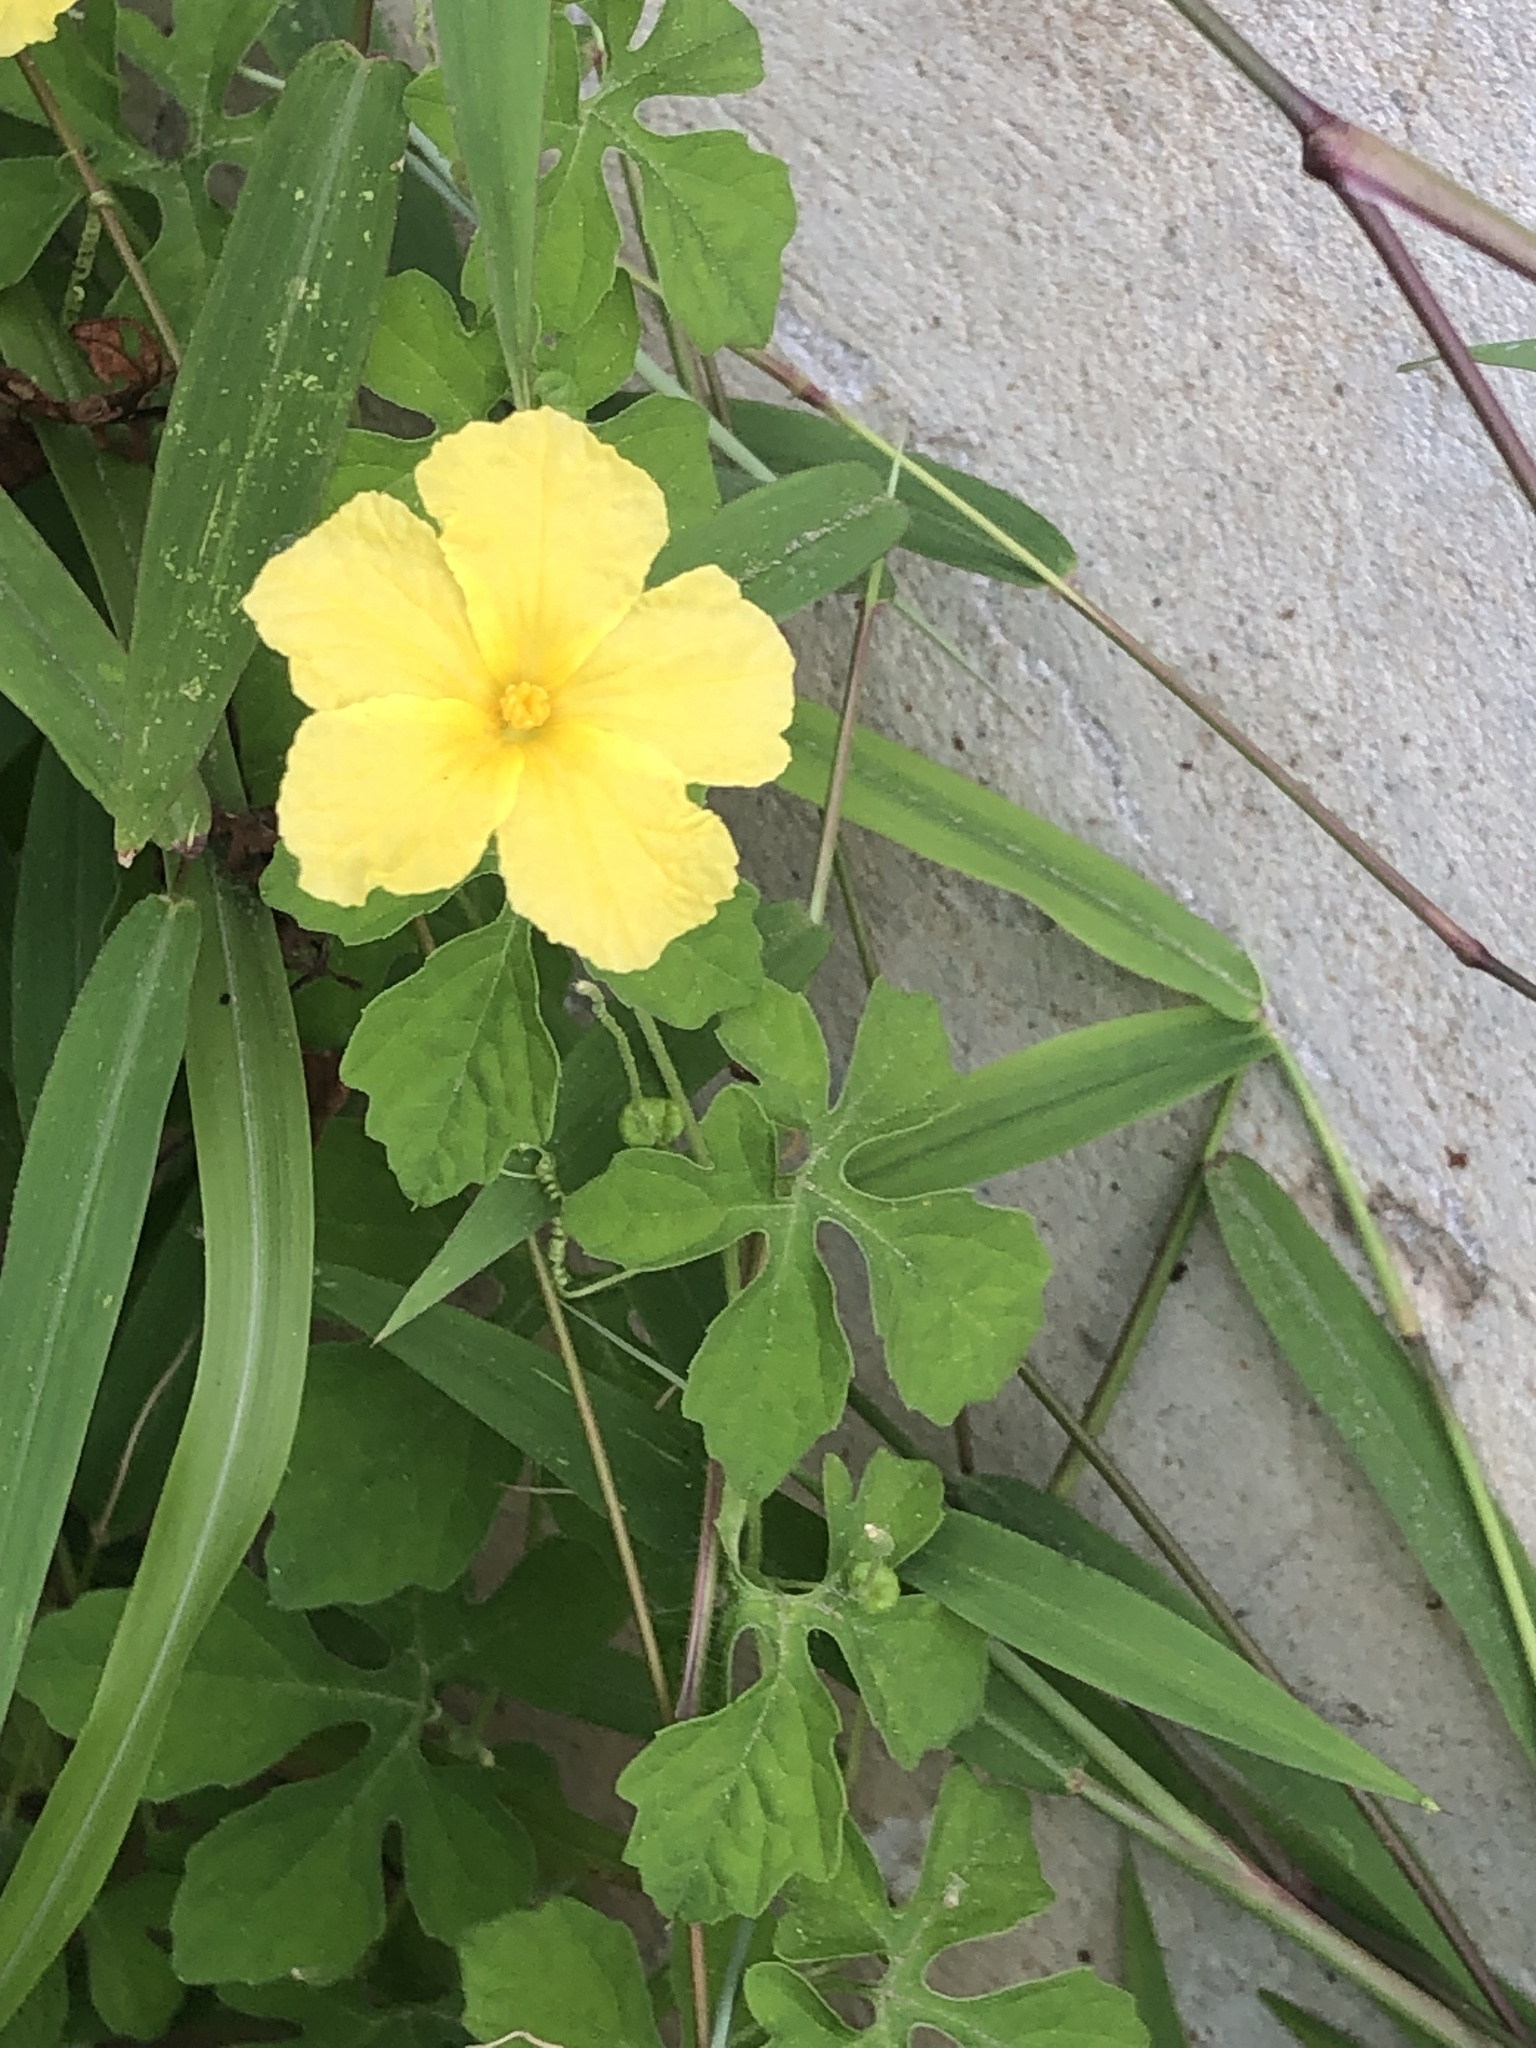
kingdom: Plantae
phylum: Tracheophyta
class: Magnoliopsida
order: Cucurbitales
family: Cucurbitaceae
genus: Momordica
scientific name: Momordica charantia
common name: Balsampear
